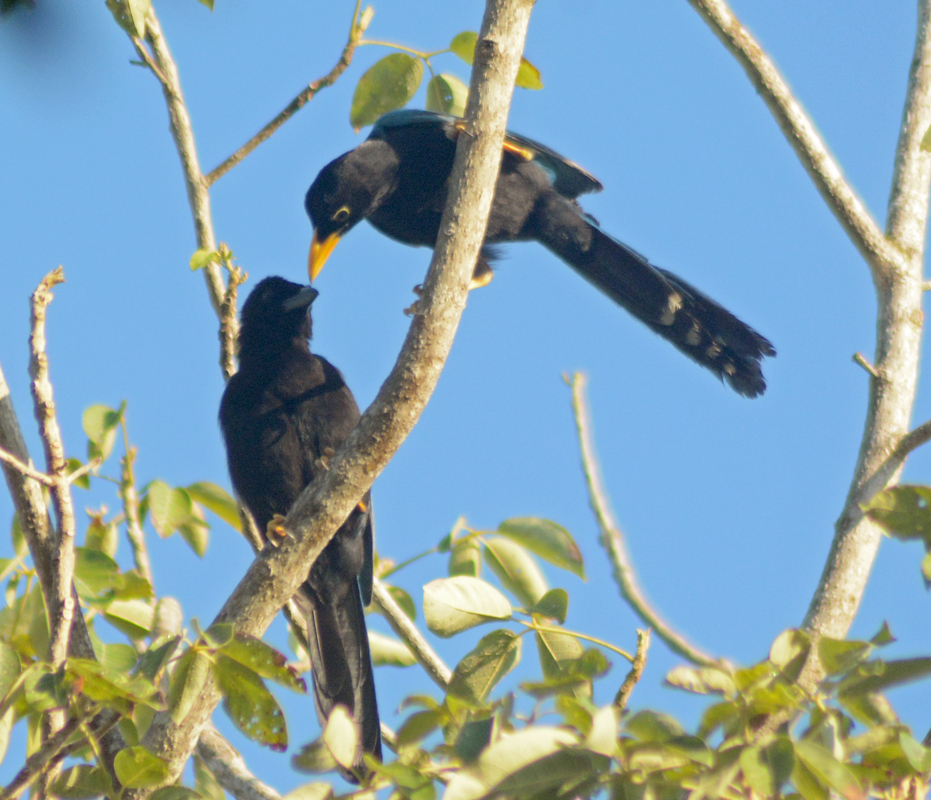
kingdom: Animalia
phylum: Chordata
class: Aves
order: Passeriformes
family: Corvidae
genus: Cyanocorax
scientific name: Cyanocorax yucatanicus
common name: Yucatan jay
